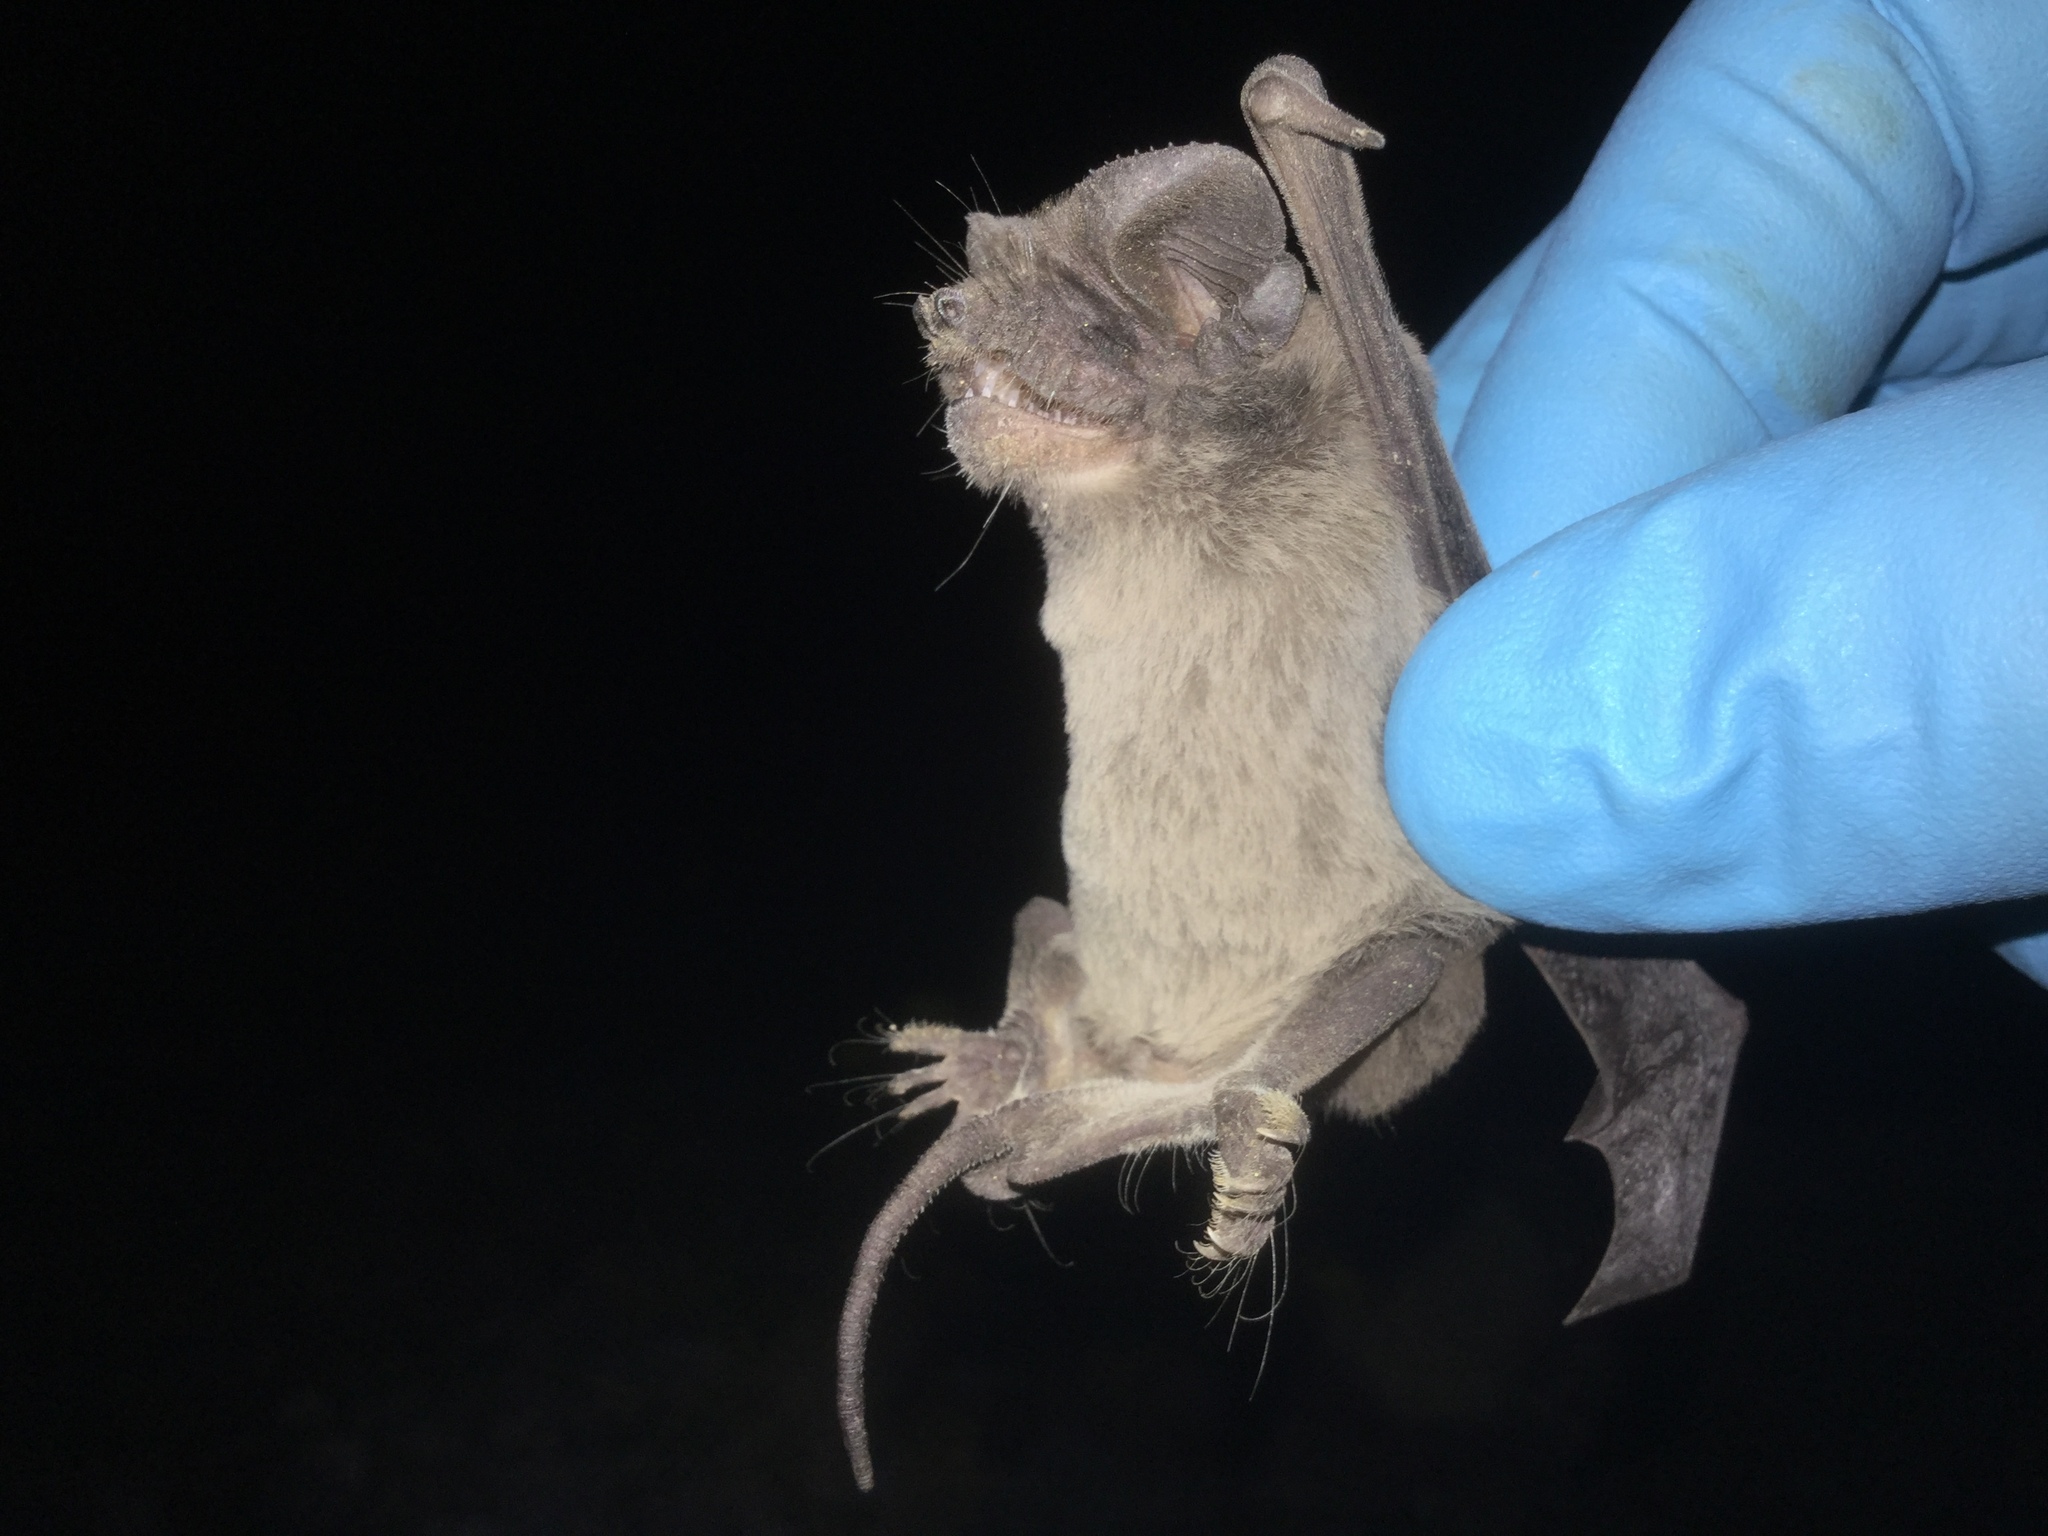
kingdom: Animalia
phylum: Chordata
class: Mammalia
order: Chiroptera
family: Molossidae
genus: Tadarida
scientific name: Tadarida brasiliensis
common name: Mexican free-tailed bat
